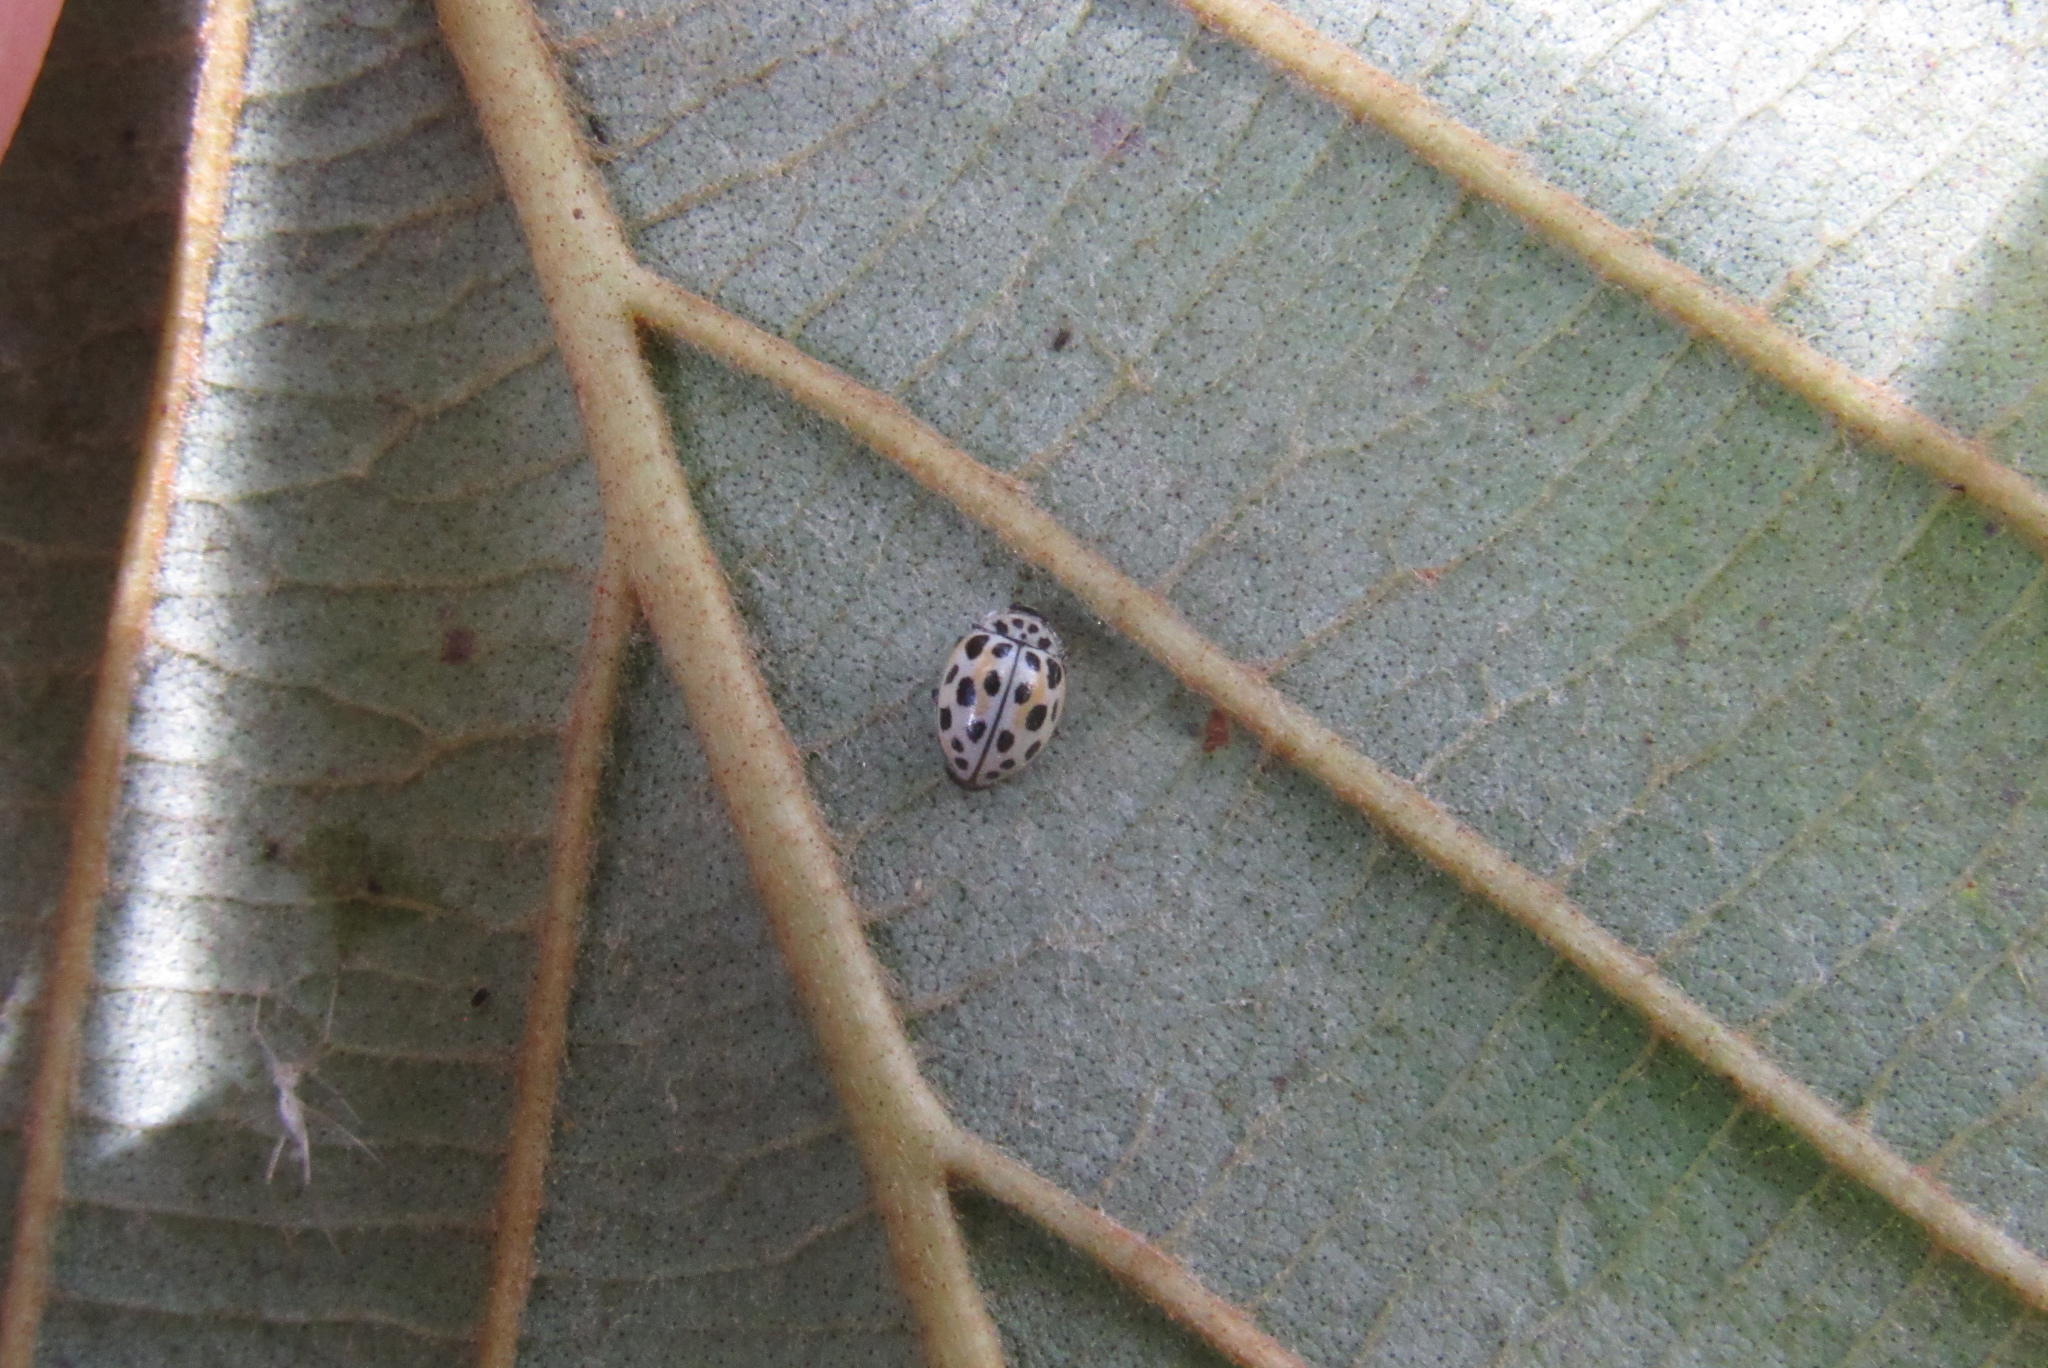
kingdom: Animalia
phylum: Arthropoda
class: Insecta
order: Coleoptera
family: Coccinellidae
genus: Psyllobora
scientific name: Psyllobora
